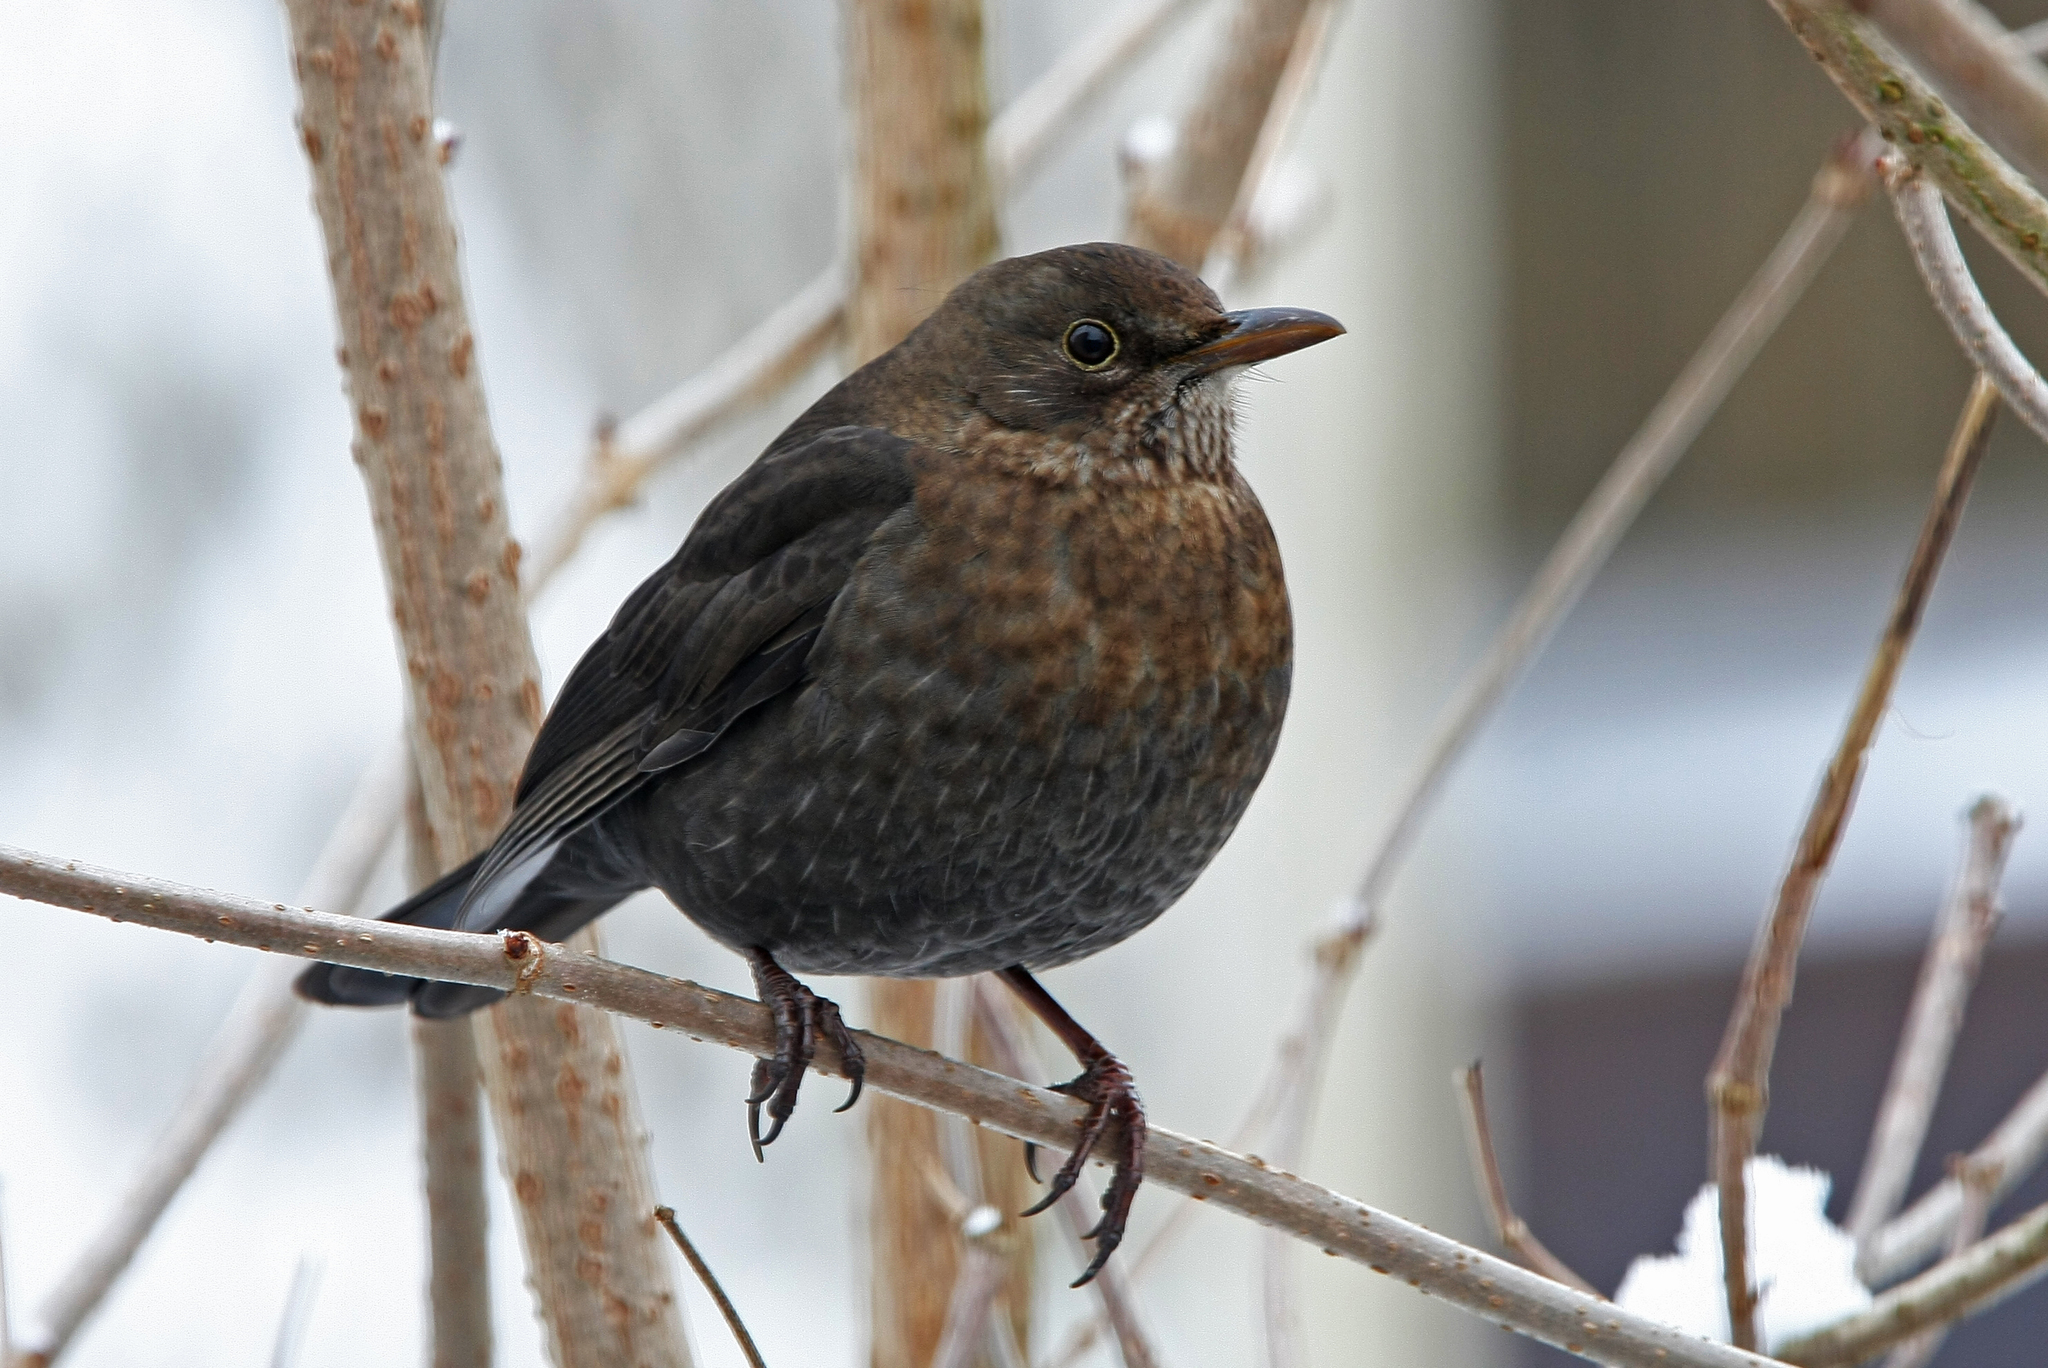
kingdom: Animalia
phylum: Chordata
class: Aves
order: Passeriformes
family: Turdidae
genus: Turdus
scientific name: Turdus merula
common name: Common blackbird
